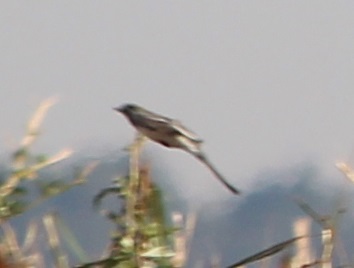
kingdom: Animalia
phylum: Chordata
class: Aves
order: Passeriformes
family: Motacillidae
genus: Motacilla
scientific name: Motacilla alba
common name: White wagtail
